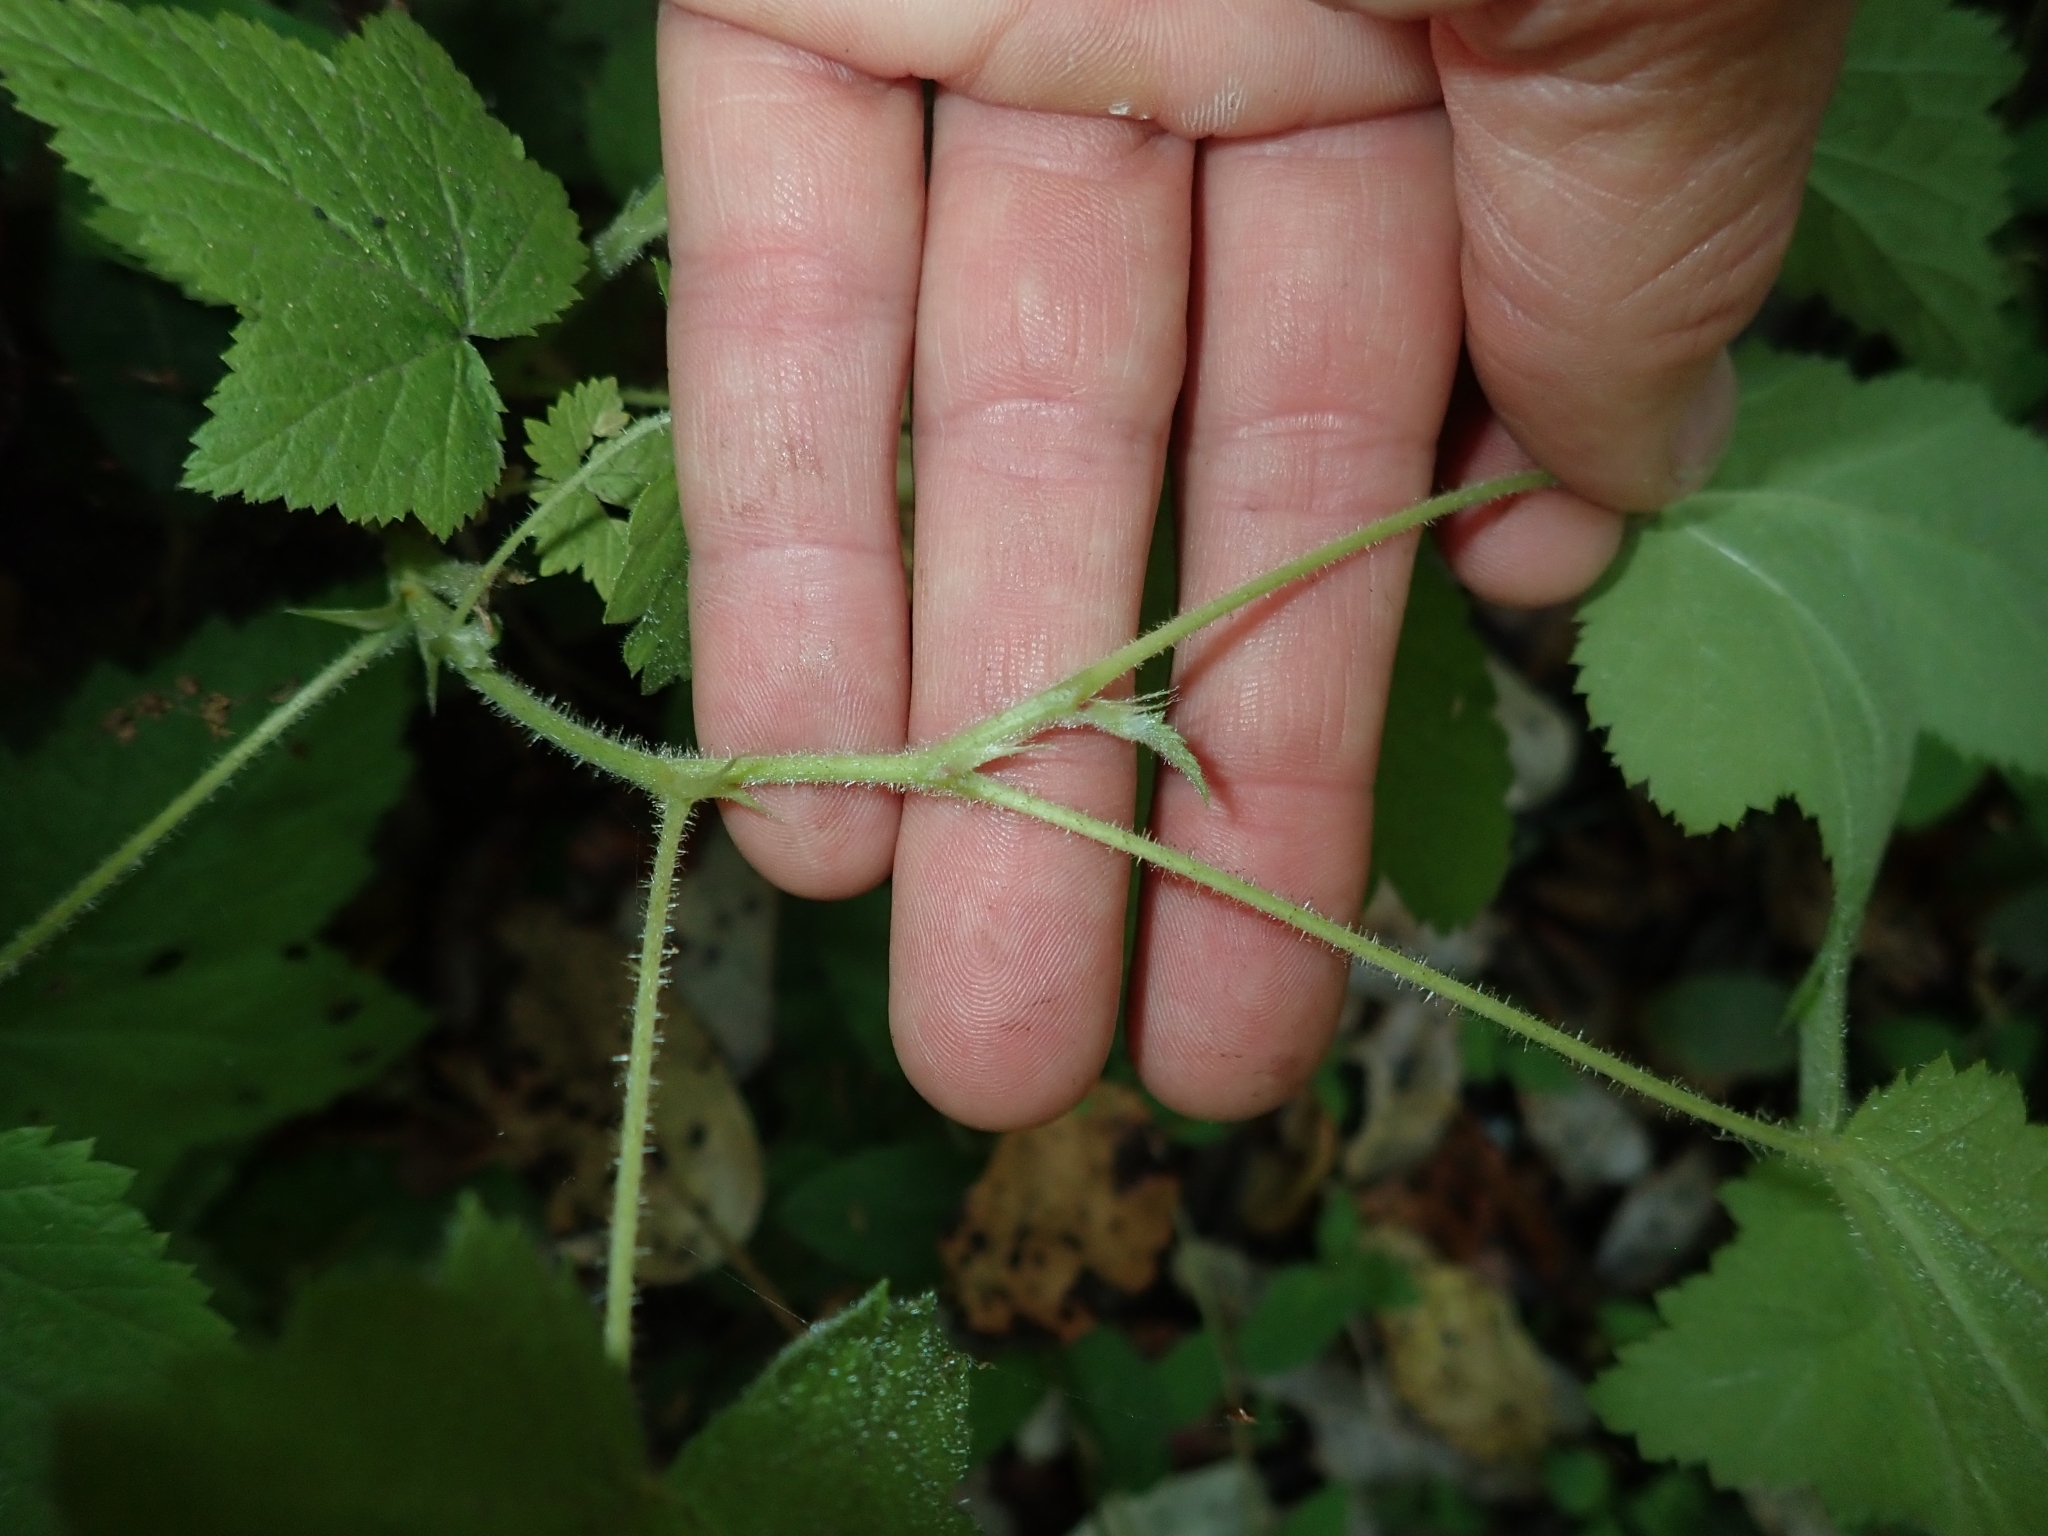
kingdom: Plantae
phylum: Tracheophyta
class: Magnoliopsida
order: Rosales
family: Rosaceae
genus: Rubus
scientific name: Rubus parviflorus
